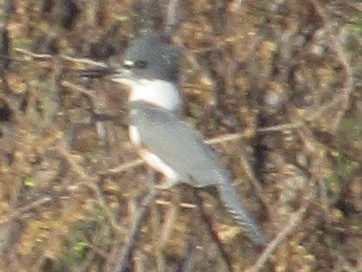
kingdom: Animalia
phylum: Chordata
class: Aves
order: Coraciiformes
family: Alcedinidae
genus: Megaceryle
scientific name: Megaceryle alcyon
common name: Belted kingfisher
